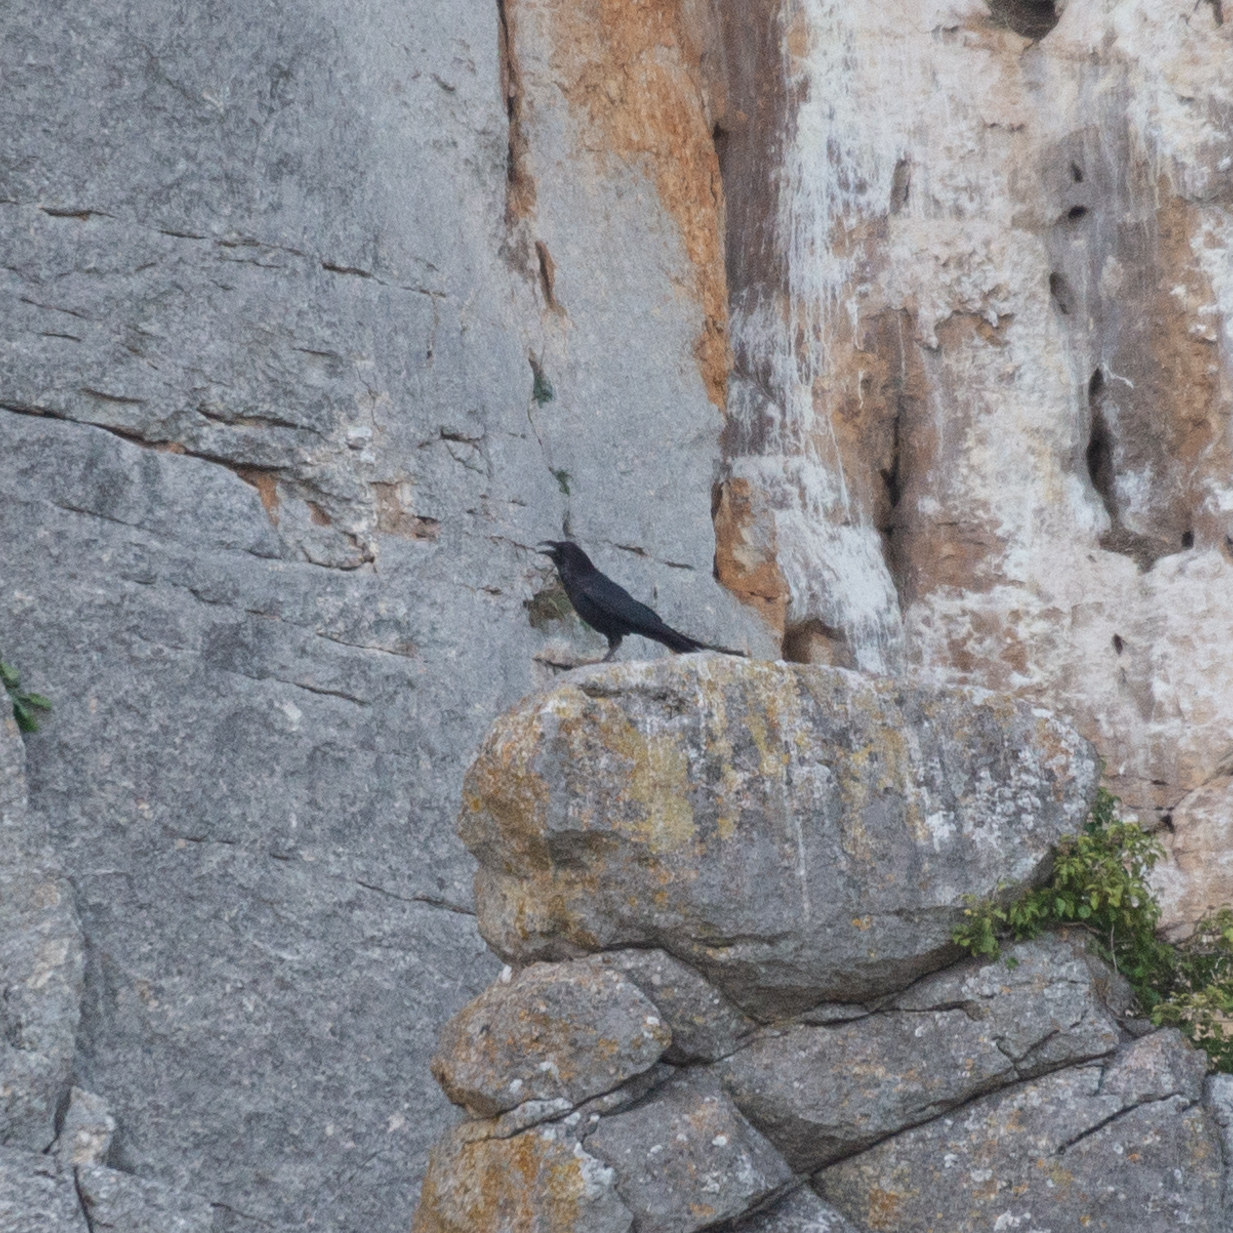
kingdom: Animalia
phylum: Chordata
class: Aves
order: Passeriformes
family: Corvidae
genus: Corvus
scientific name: Corvus corax
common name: Common raven
